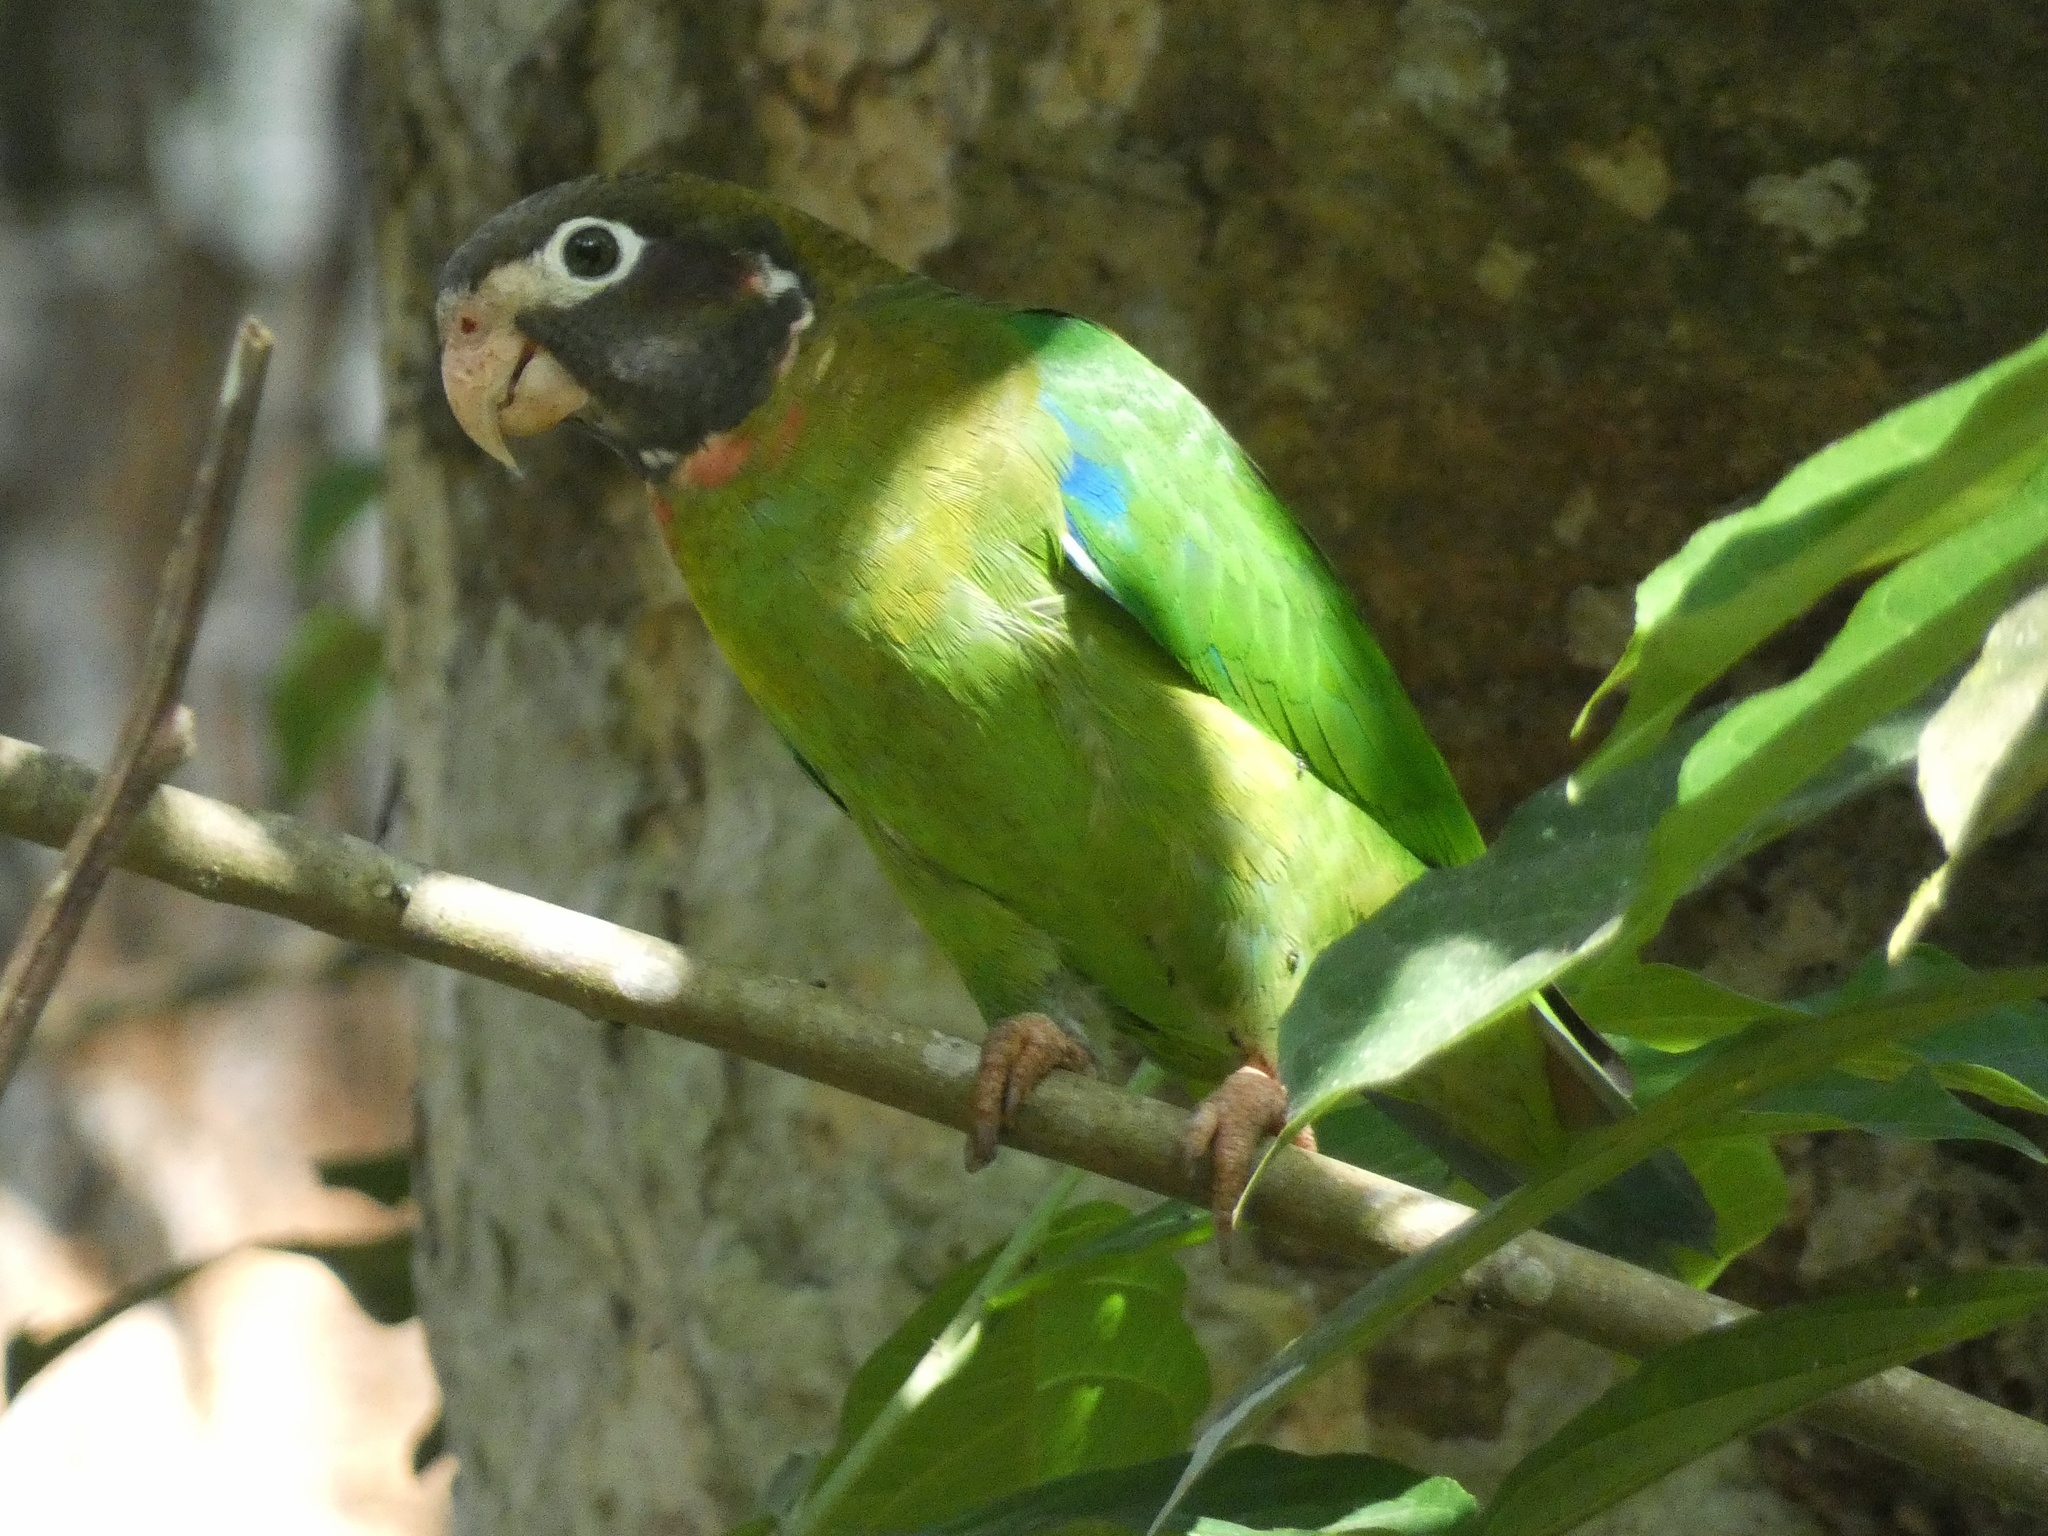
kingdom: Animalia
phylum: Chordata
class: Aves
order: Psittaciformes
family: Psittacidae
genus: Pionopsitta
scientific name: Pionopsitta haematotis
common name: Brown-hooded parrot
